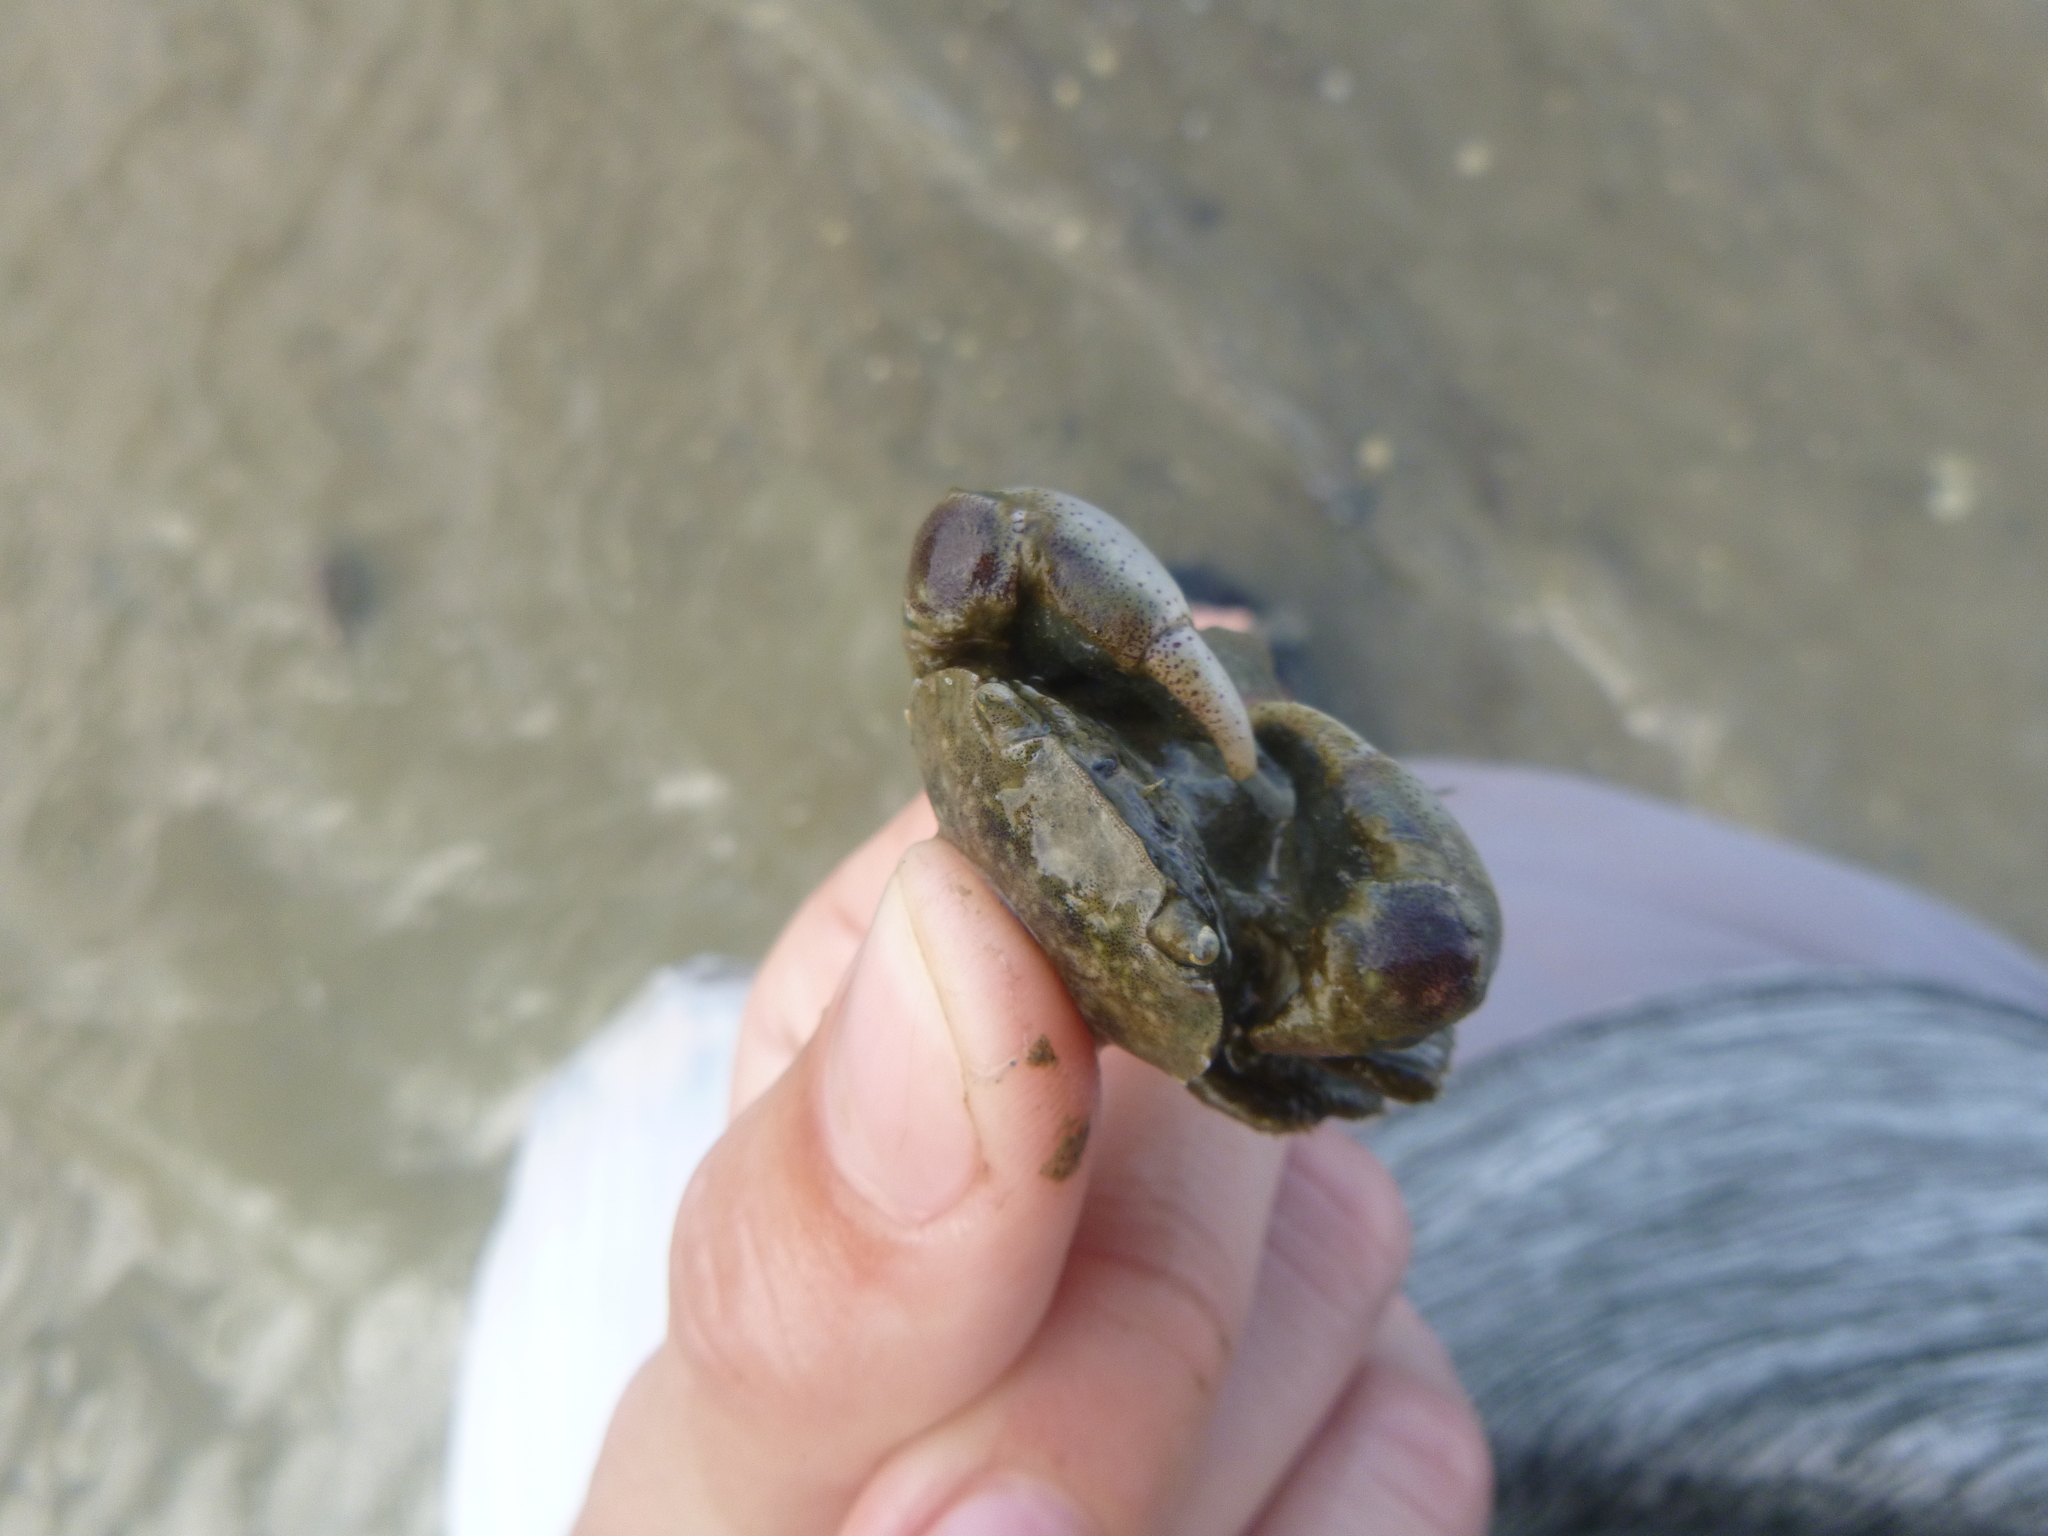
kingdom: Animalia
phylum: Arthropoda
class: Malacostraca
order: Decapoda
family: Varunidae
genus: Hemigrapsus
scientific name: Hemigrapsus crenulatus
